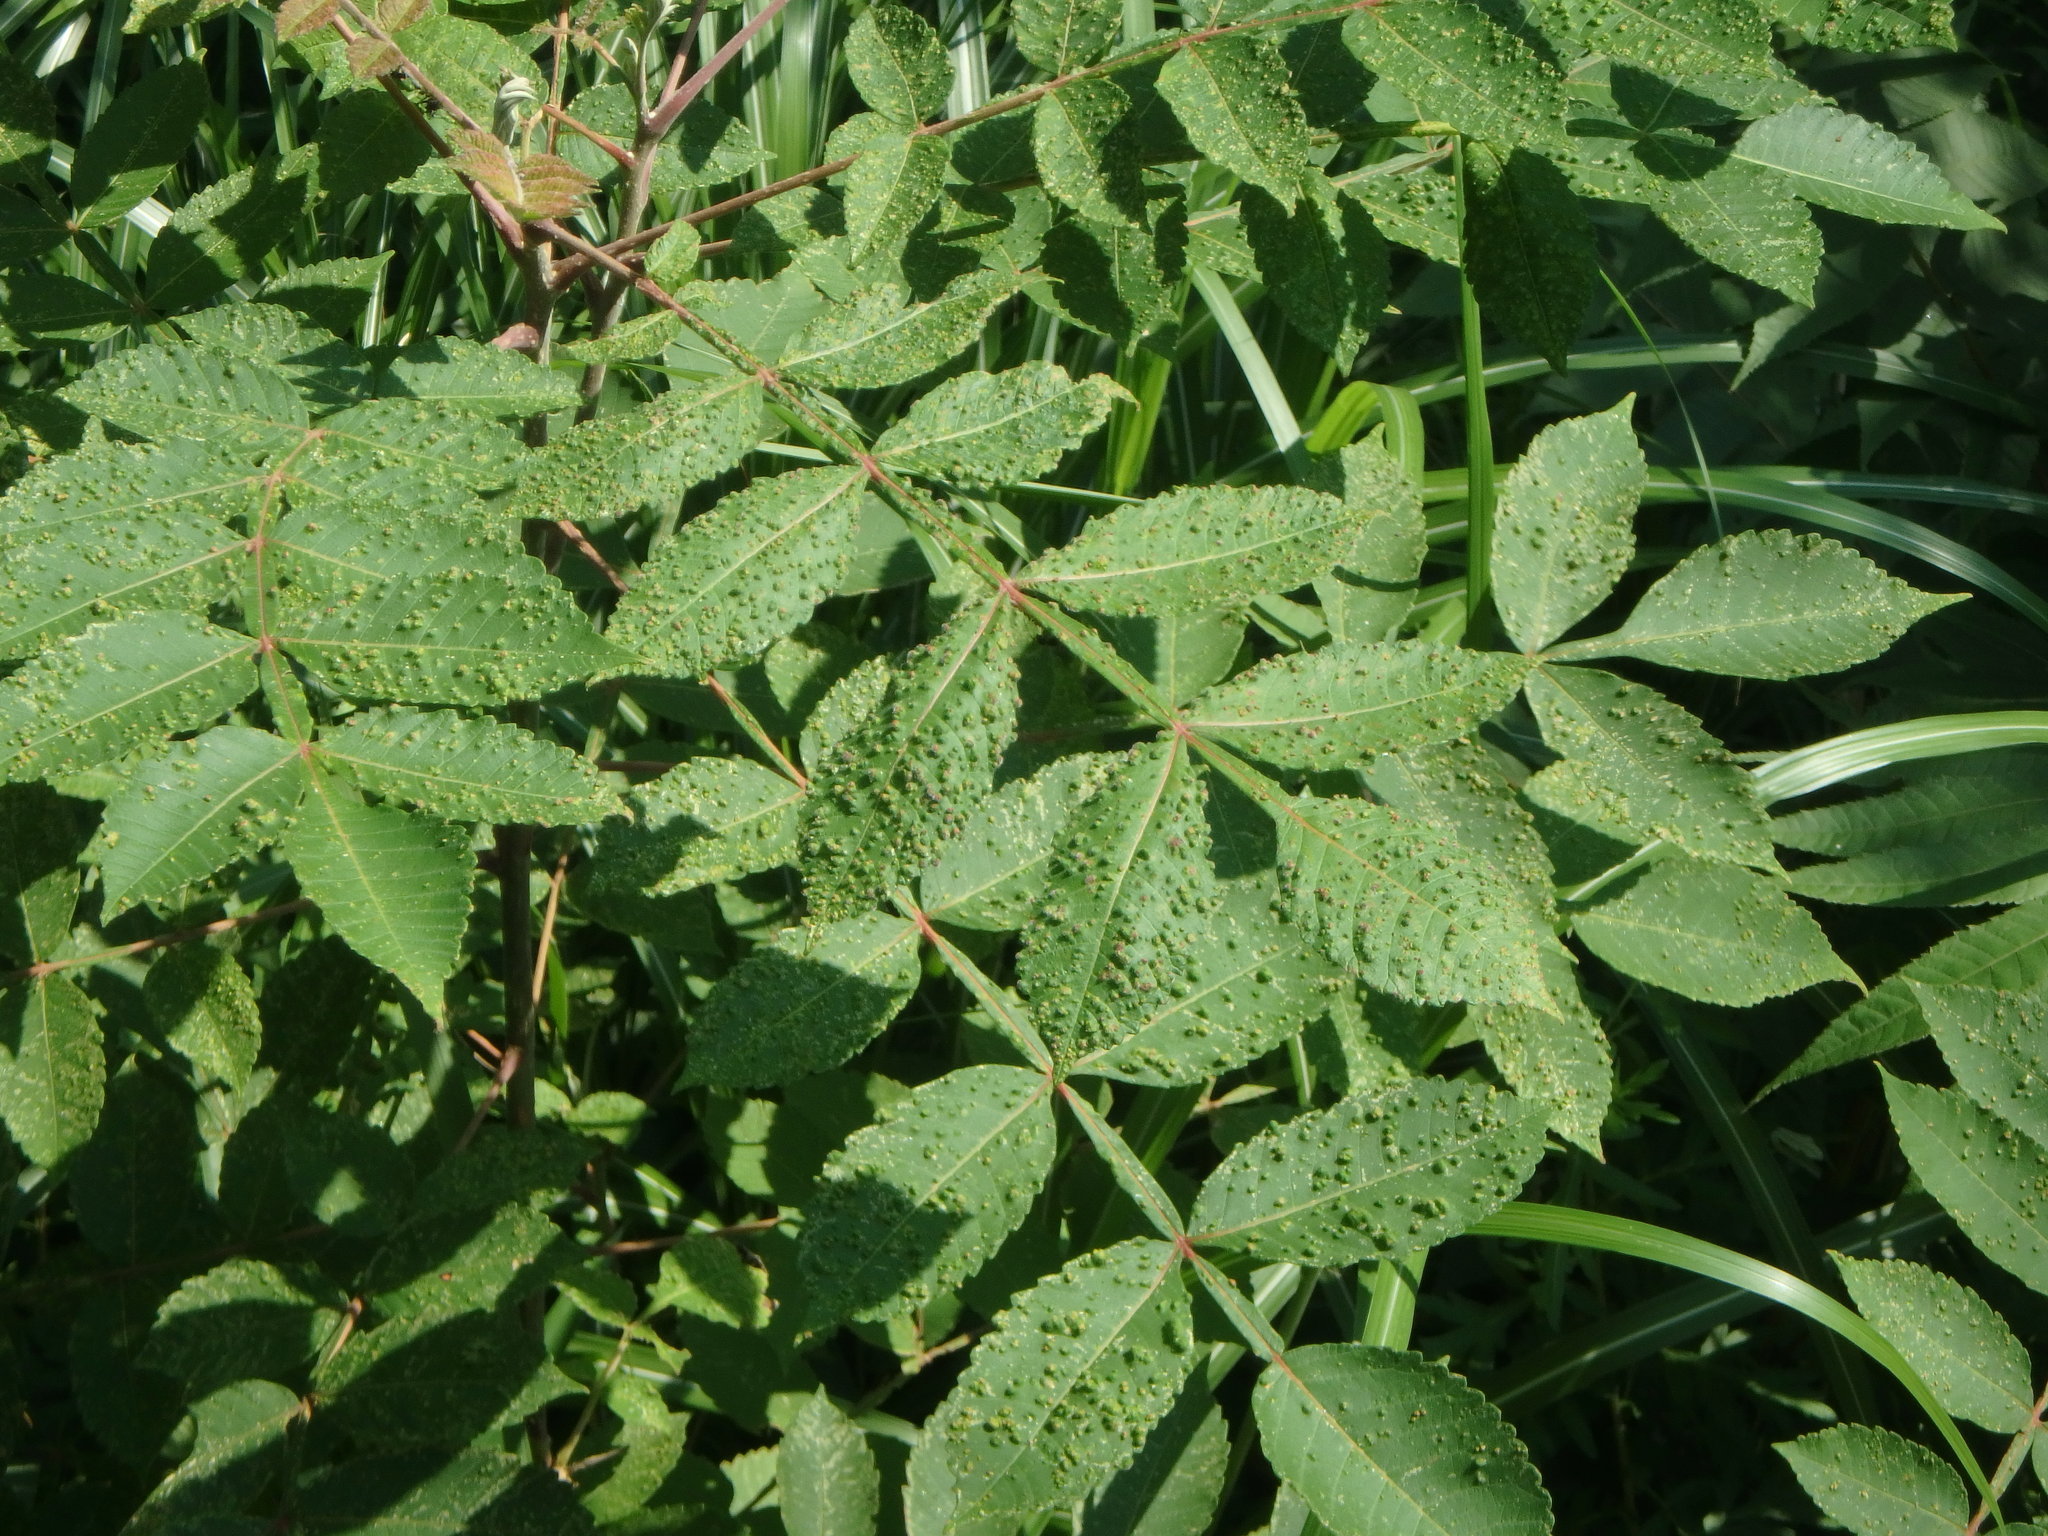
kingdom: Animalia
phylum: Arthropoda
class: Arachnida
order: Trombidiformes
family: Eriophyidae
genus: Aculops
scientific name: Aculops chinonei
